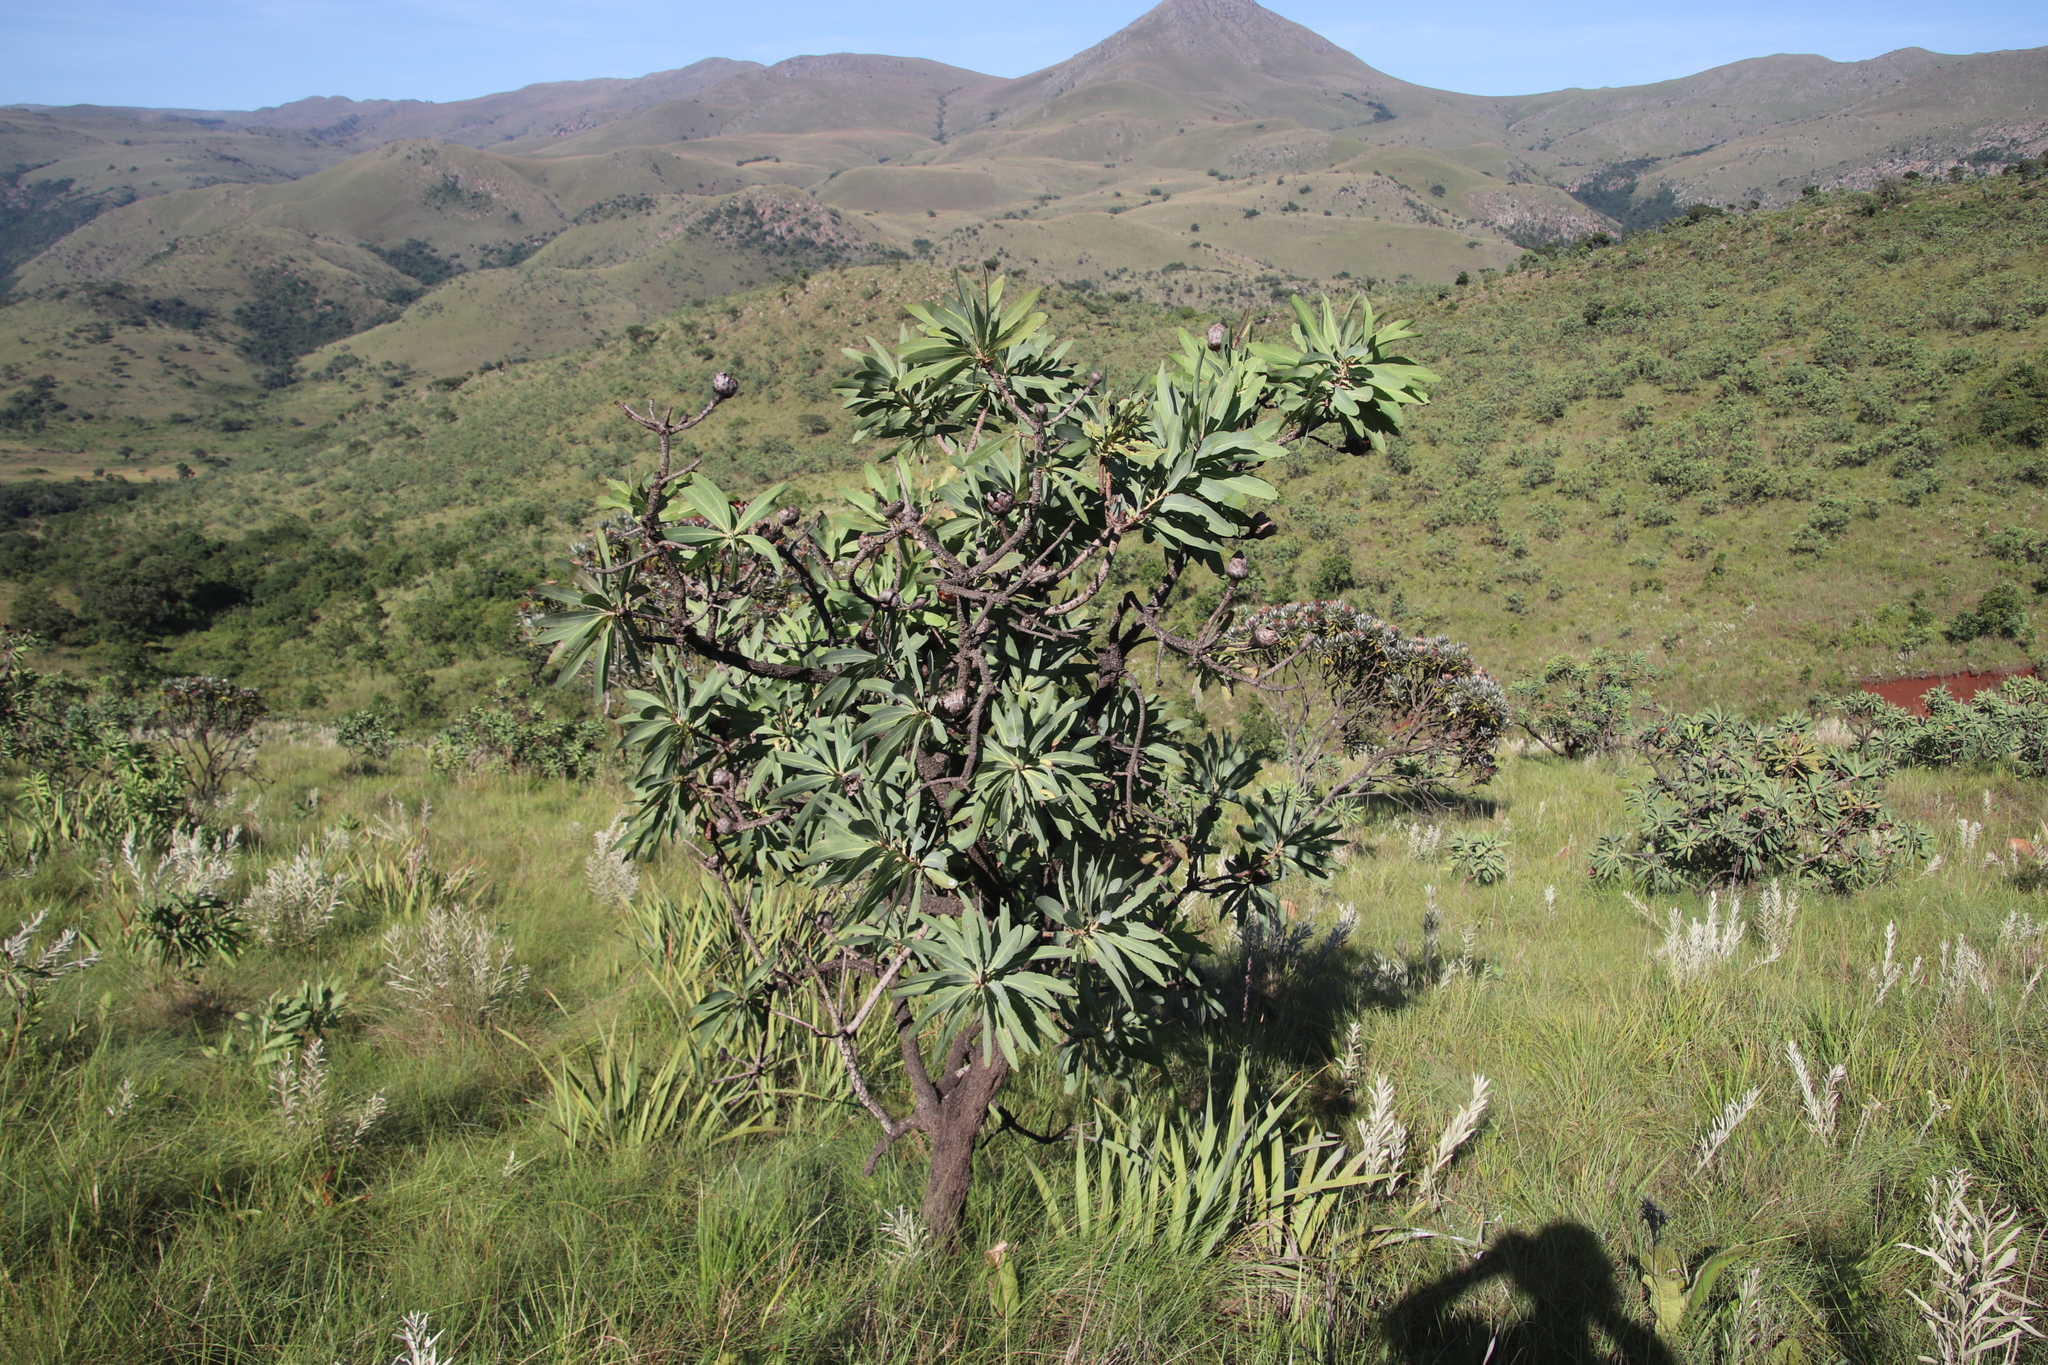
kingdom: Plantae
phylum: Tracheophyta
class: Magnoliopsida
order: Proteales
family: Proteaceae
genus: Protea
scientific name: Protea caffra
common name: Common sugarbush
